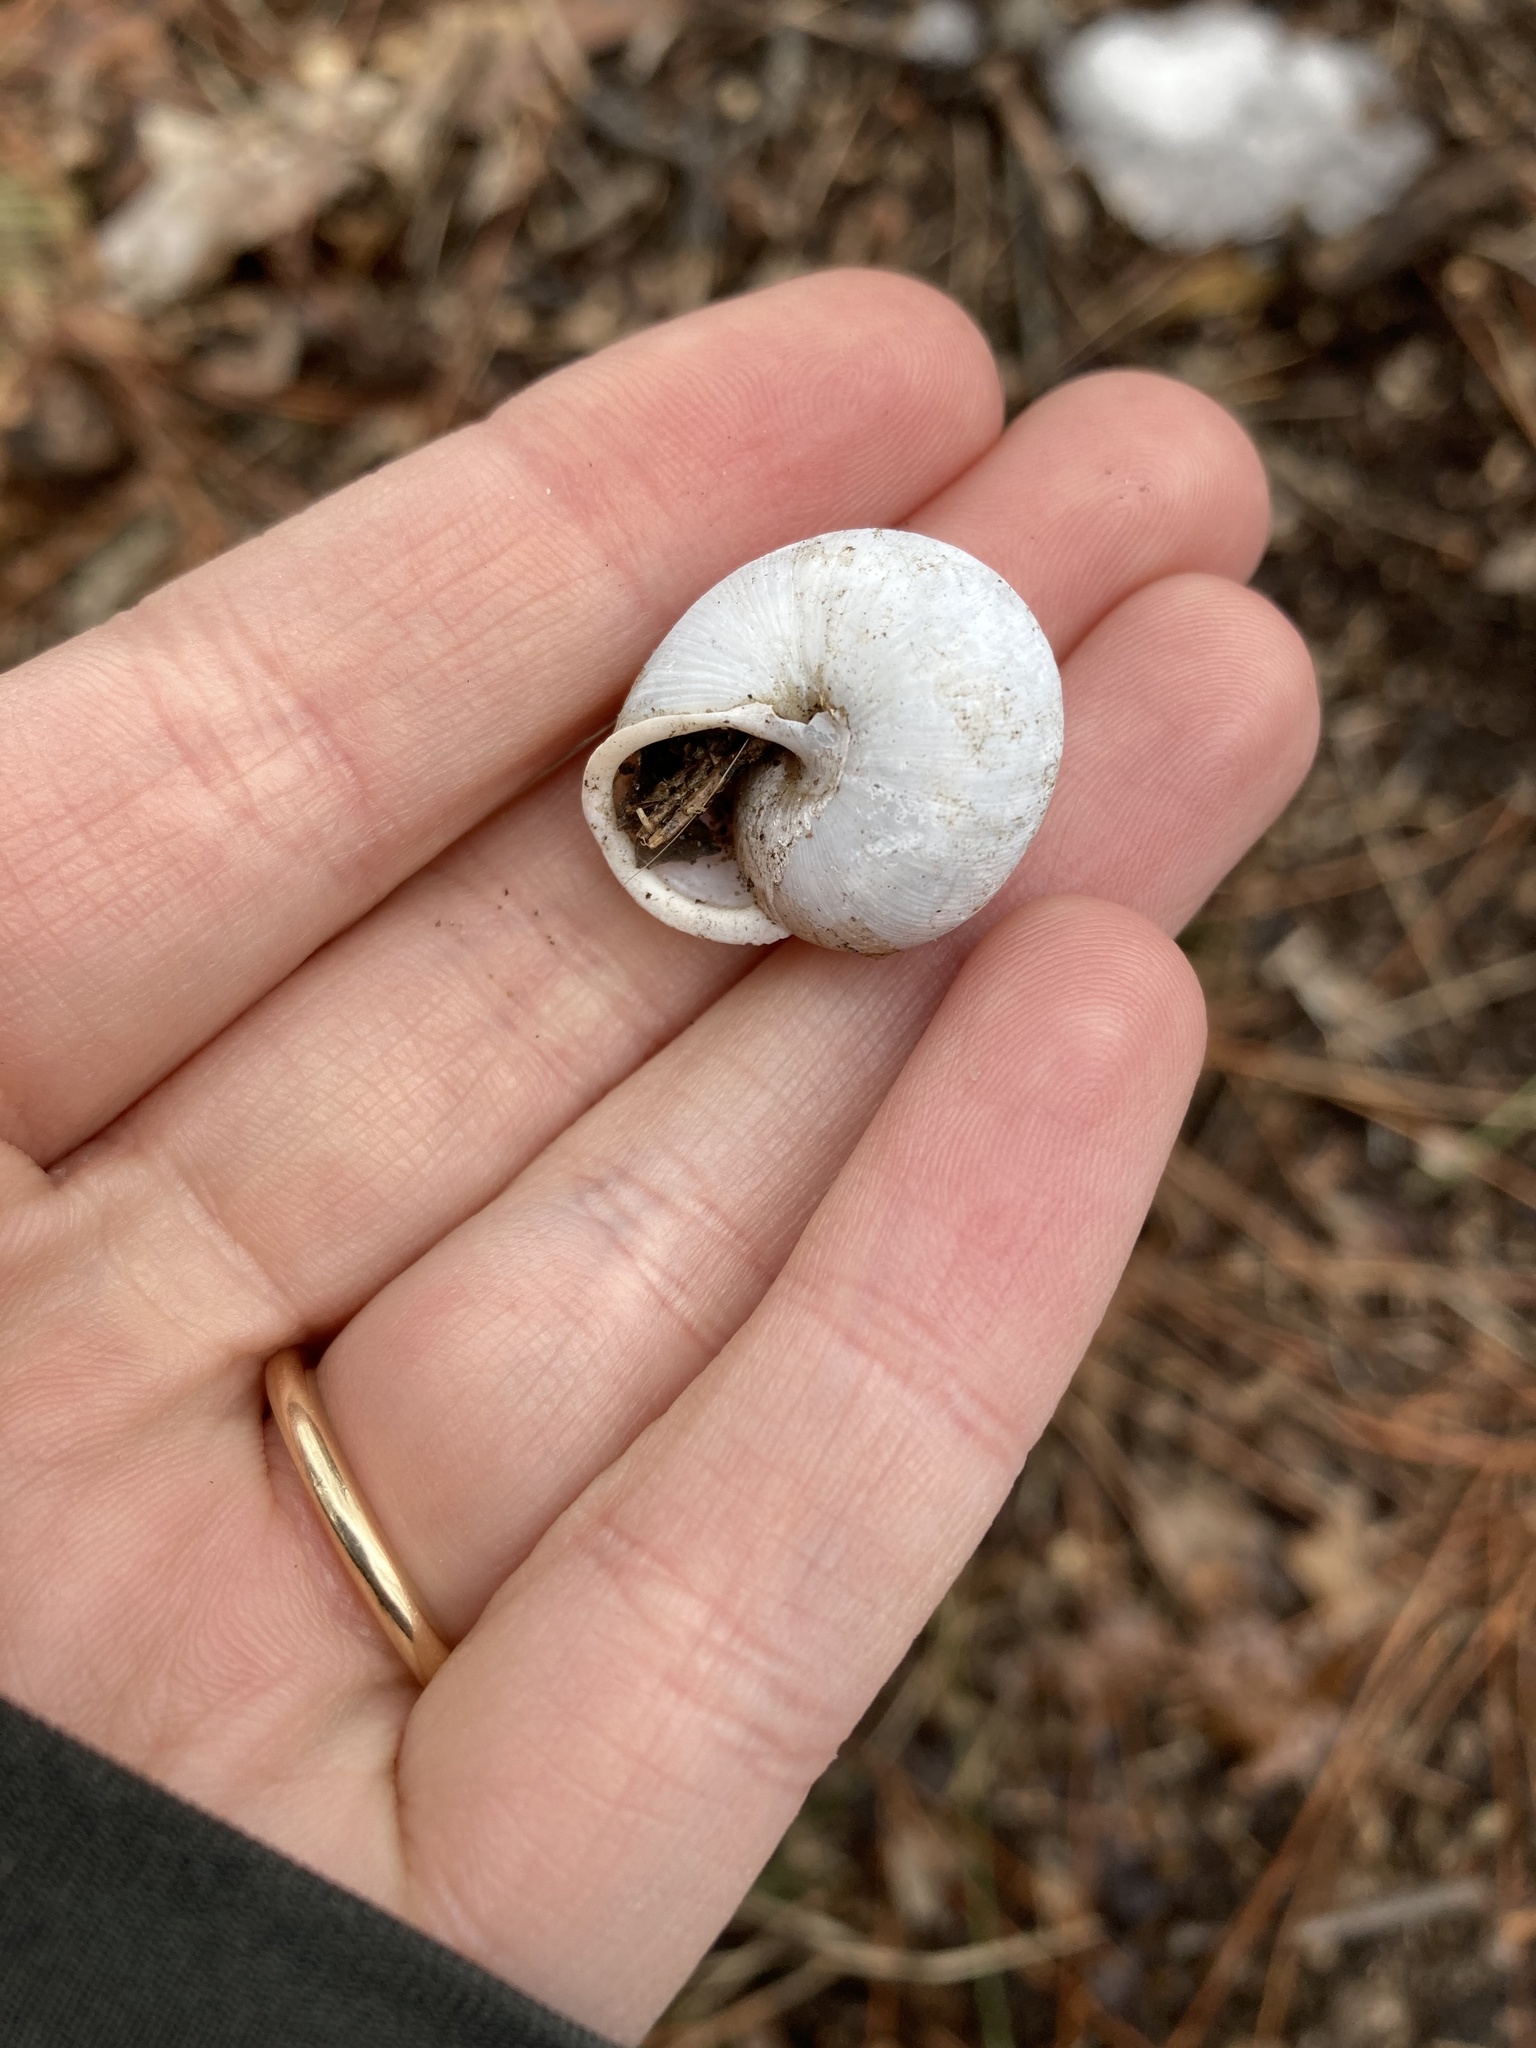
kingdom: Animalia
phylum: Mollusca
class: Gastropoda
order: Stylommatophora
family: Polygyridae
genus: Mesodon
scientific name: Mesodon thyroidus
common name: White-lip globe
